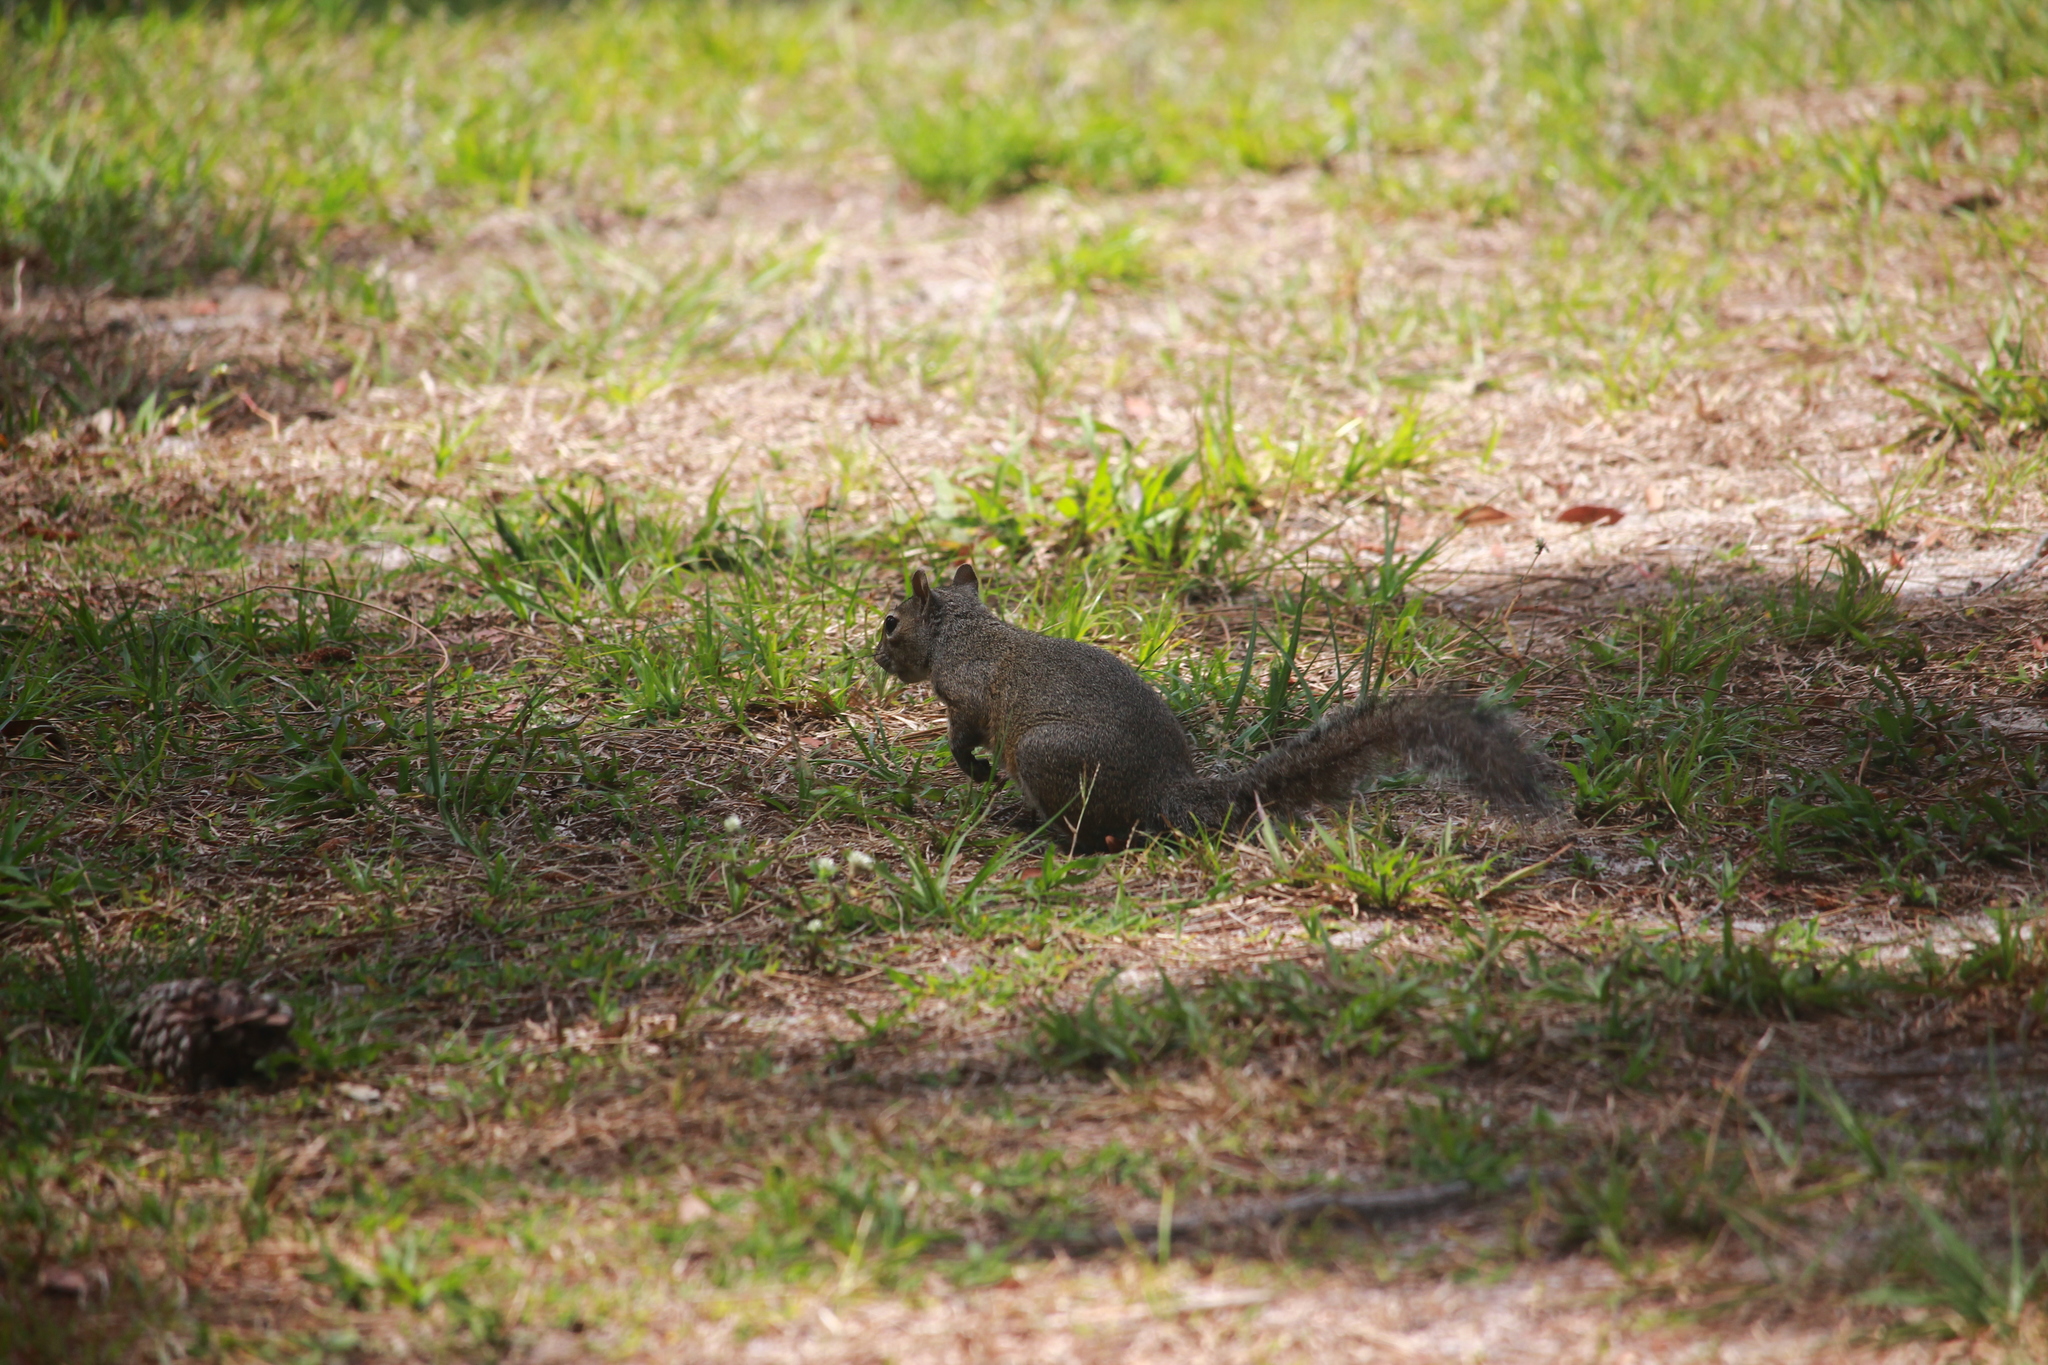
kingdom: Animalia
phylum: Chordata
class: Mammalia
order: Rodentia
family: Sciuridae
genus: Sciurus
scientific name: Sciurus carolinensis
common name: Eastern gray squirrel
